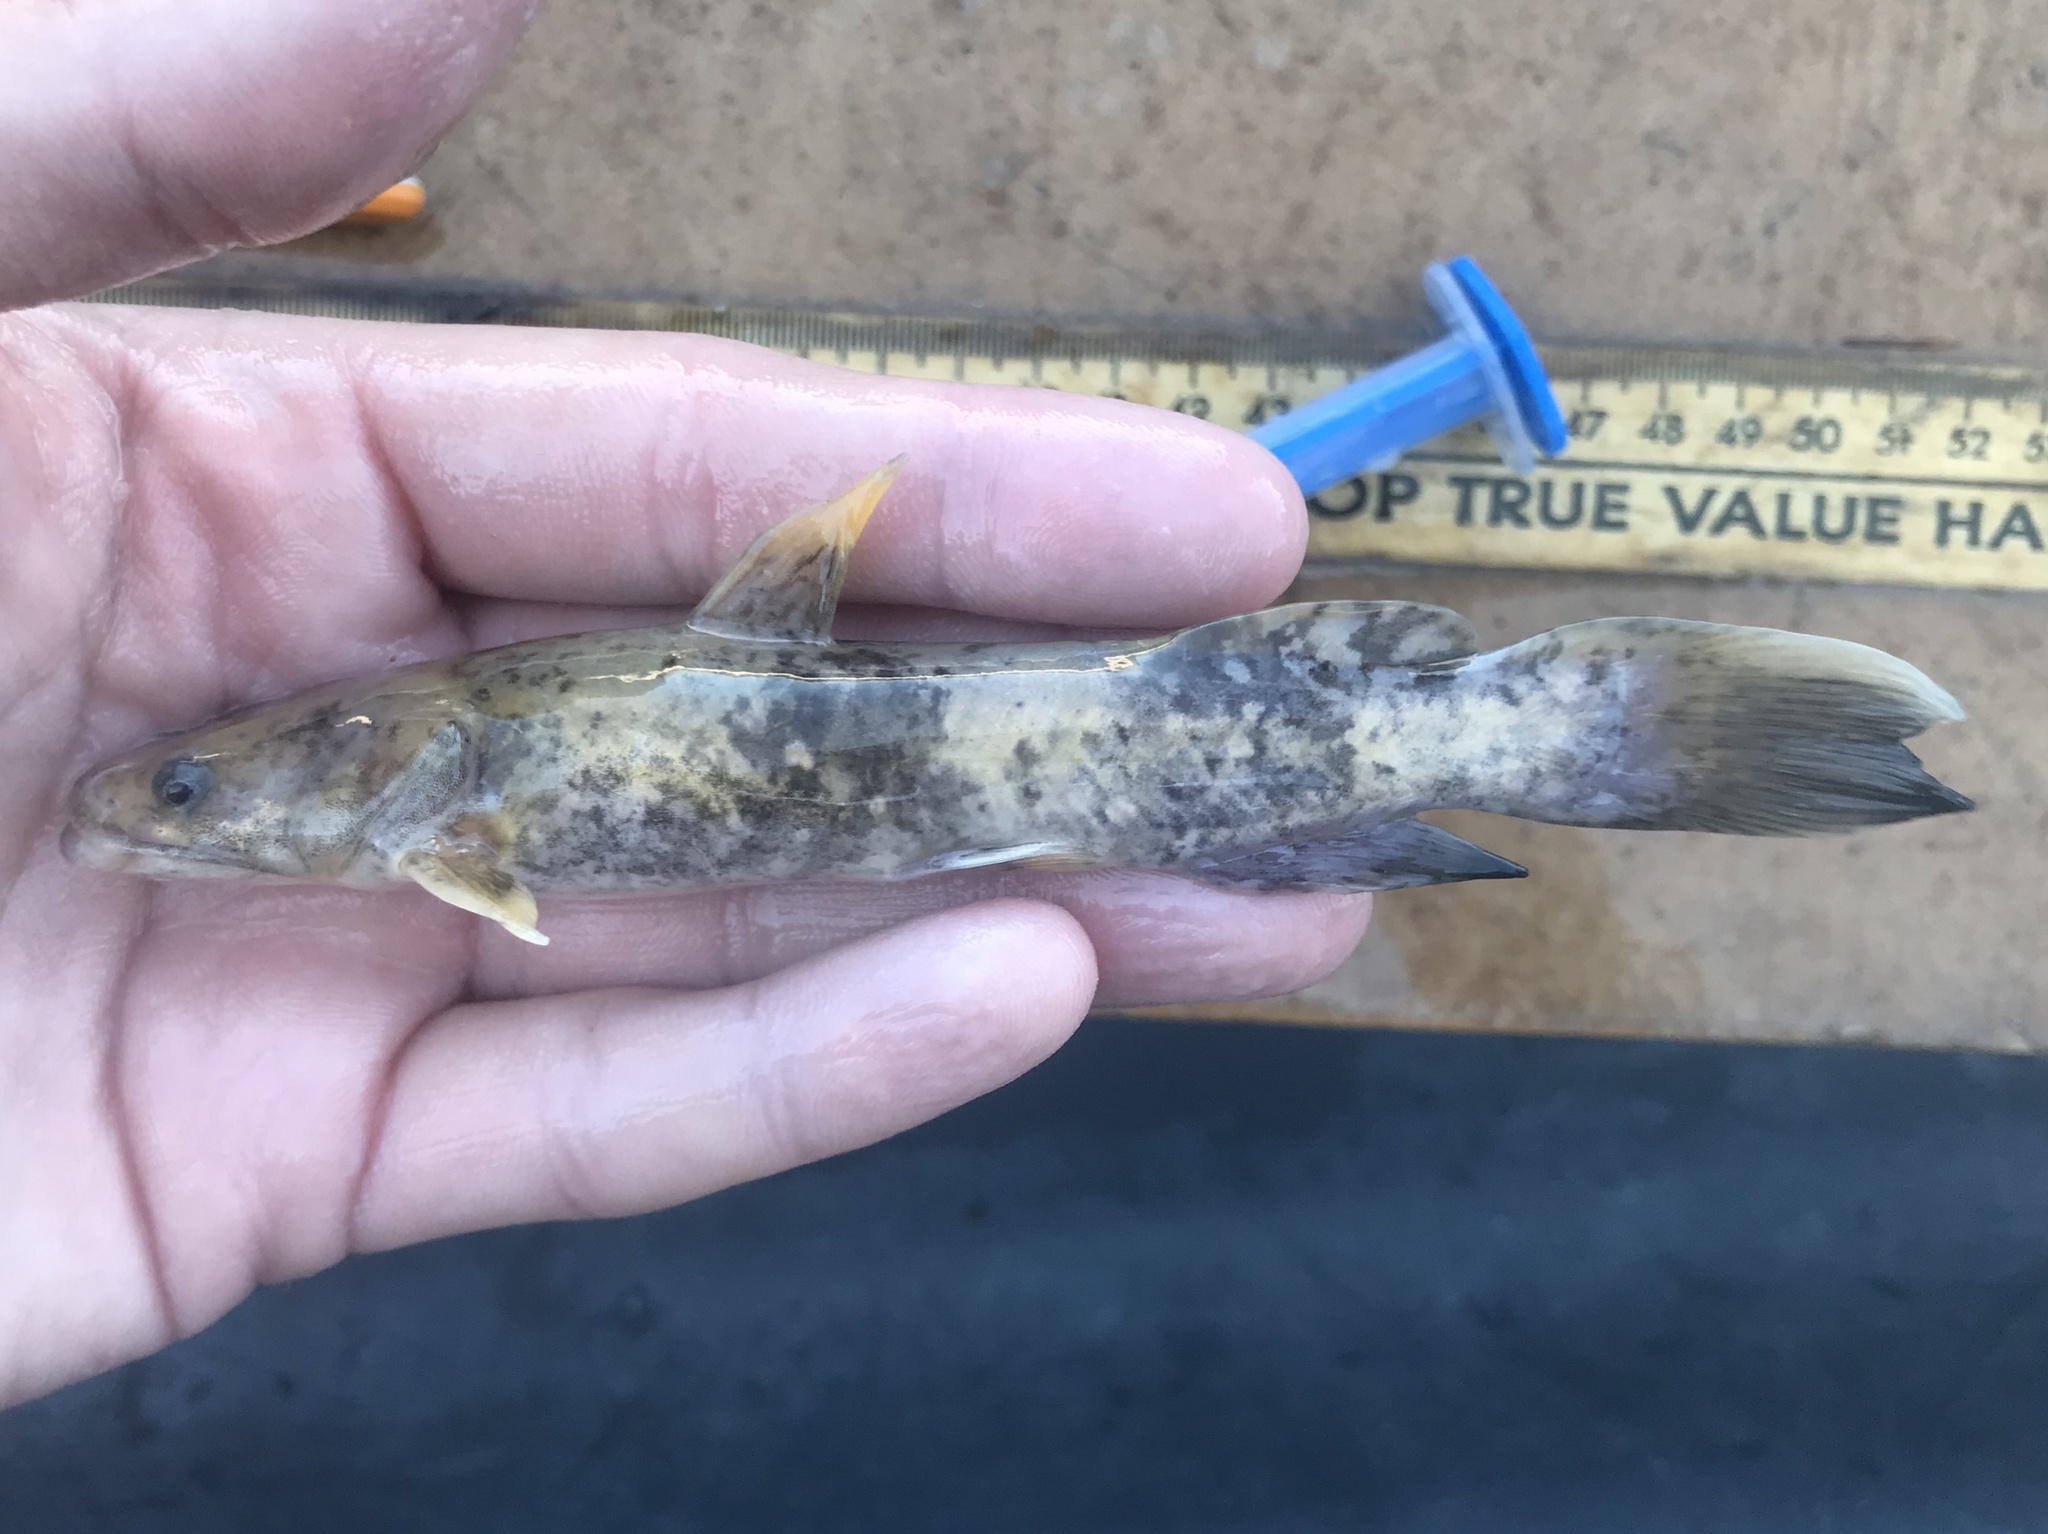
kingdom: Animalia
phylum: Chordata
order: Siluriformes
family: Ictaluridae
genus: Pylodictis
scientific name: Pylodictis olivaris
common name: Flathead catfish
